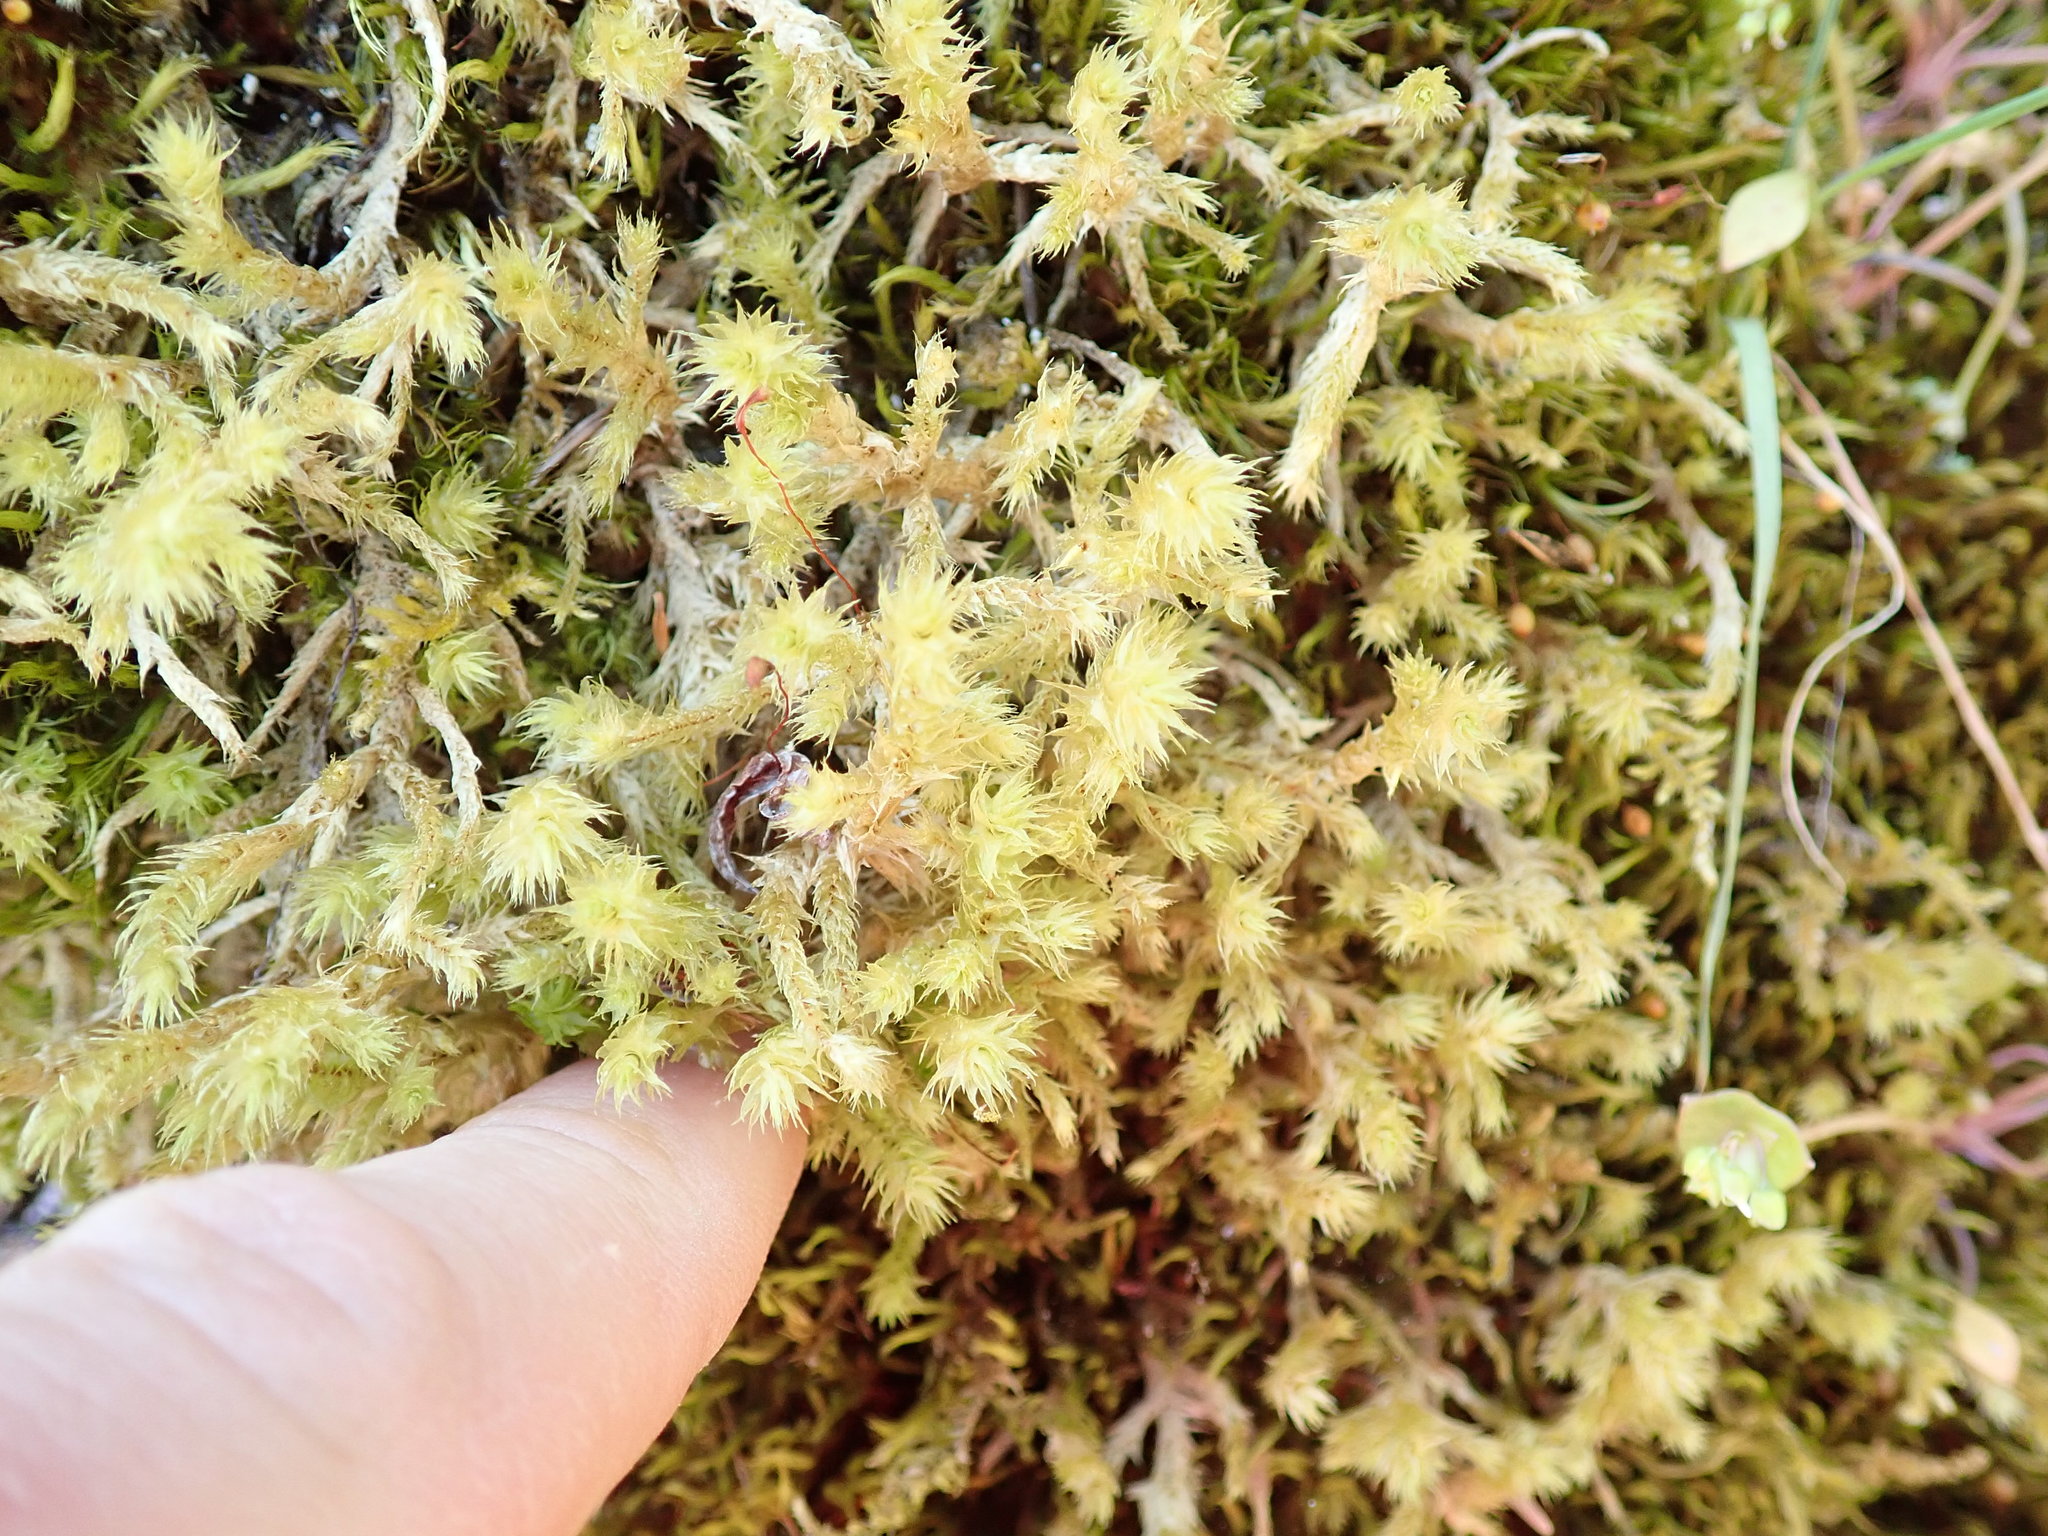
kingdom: Plantae
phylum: Bryophyta
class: Bryopsida
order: Hypnales
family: Hylocomiaceae
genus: Hylocomiadelphus
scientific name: Hylocomiadelphus triquetrus
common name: Rough goose neck moss
